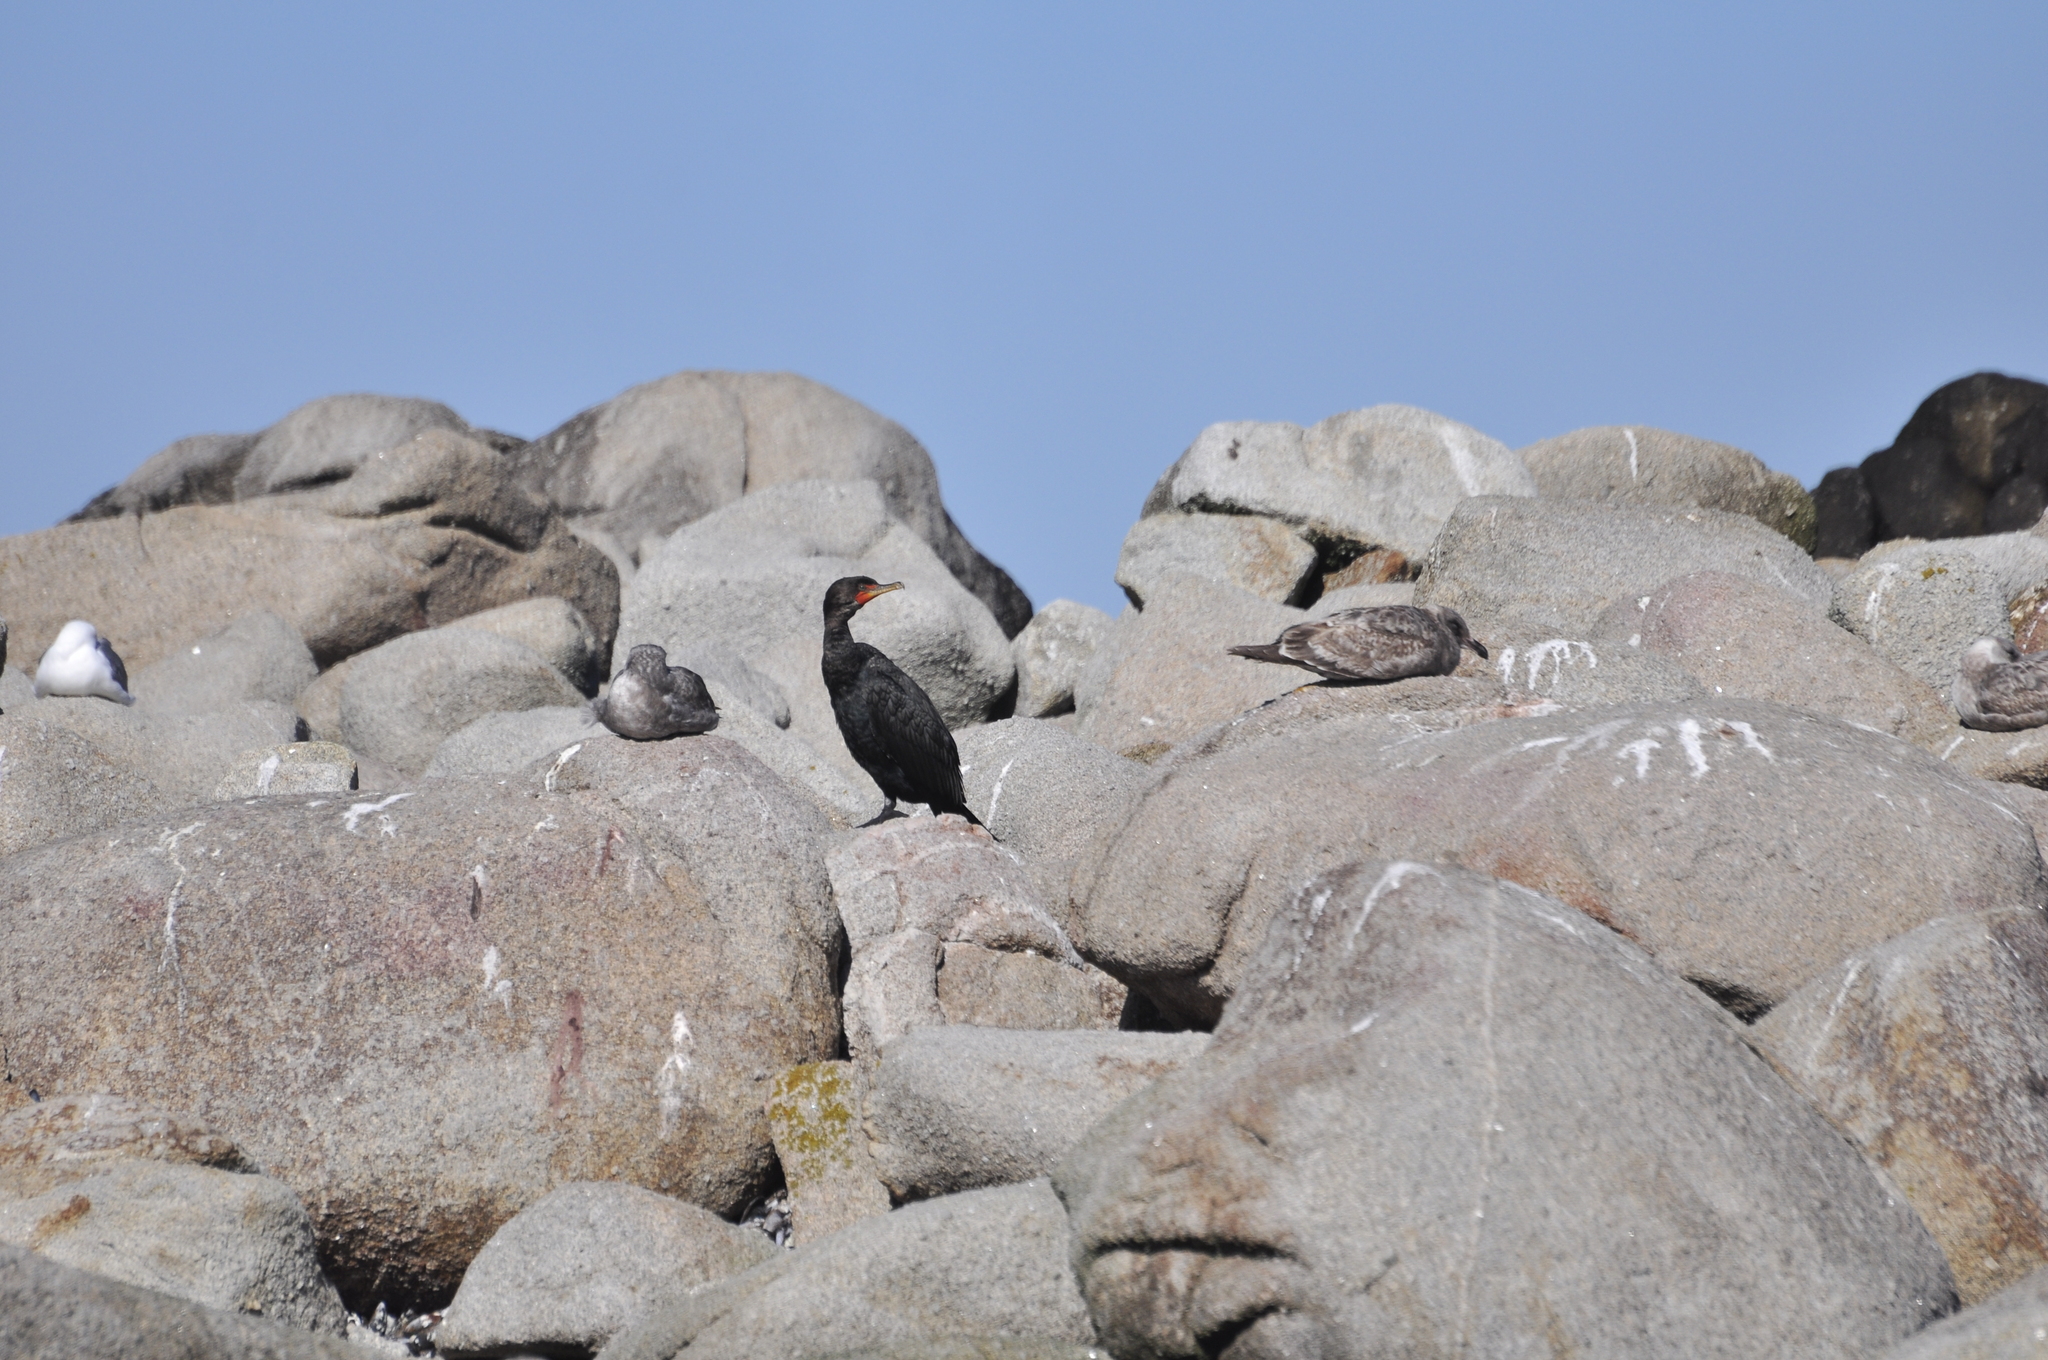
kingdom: Animalia
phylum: Chordata
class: Aves
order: Suliformes
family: Phalacrocoracidae
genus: Phalacrocorax
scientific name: Phalacrocorax auritus
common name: Double-crested cormorant
